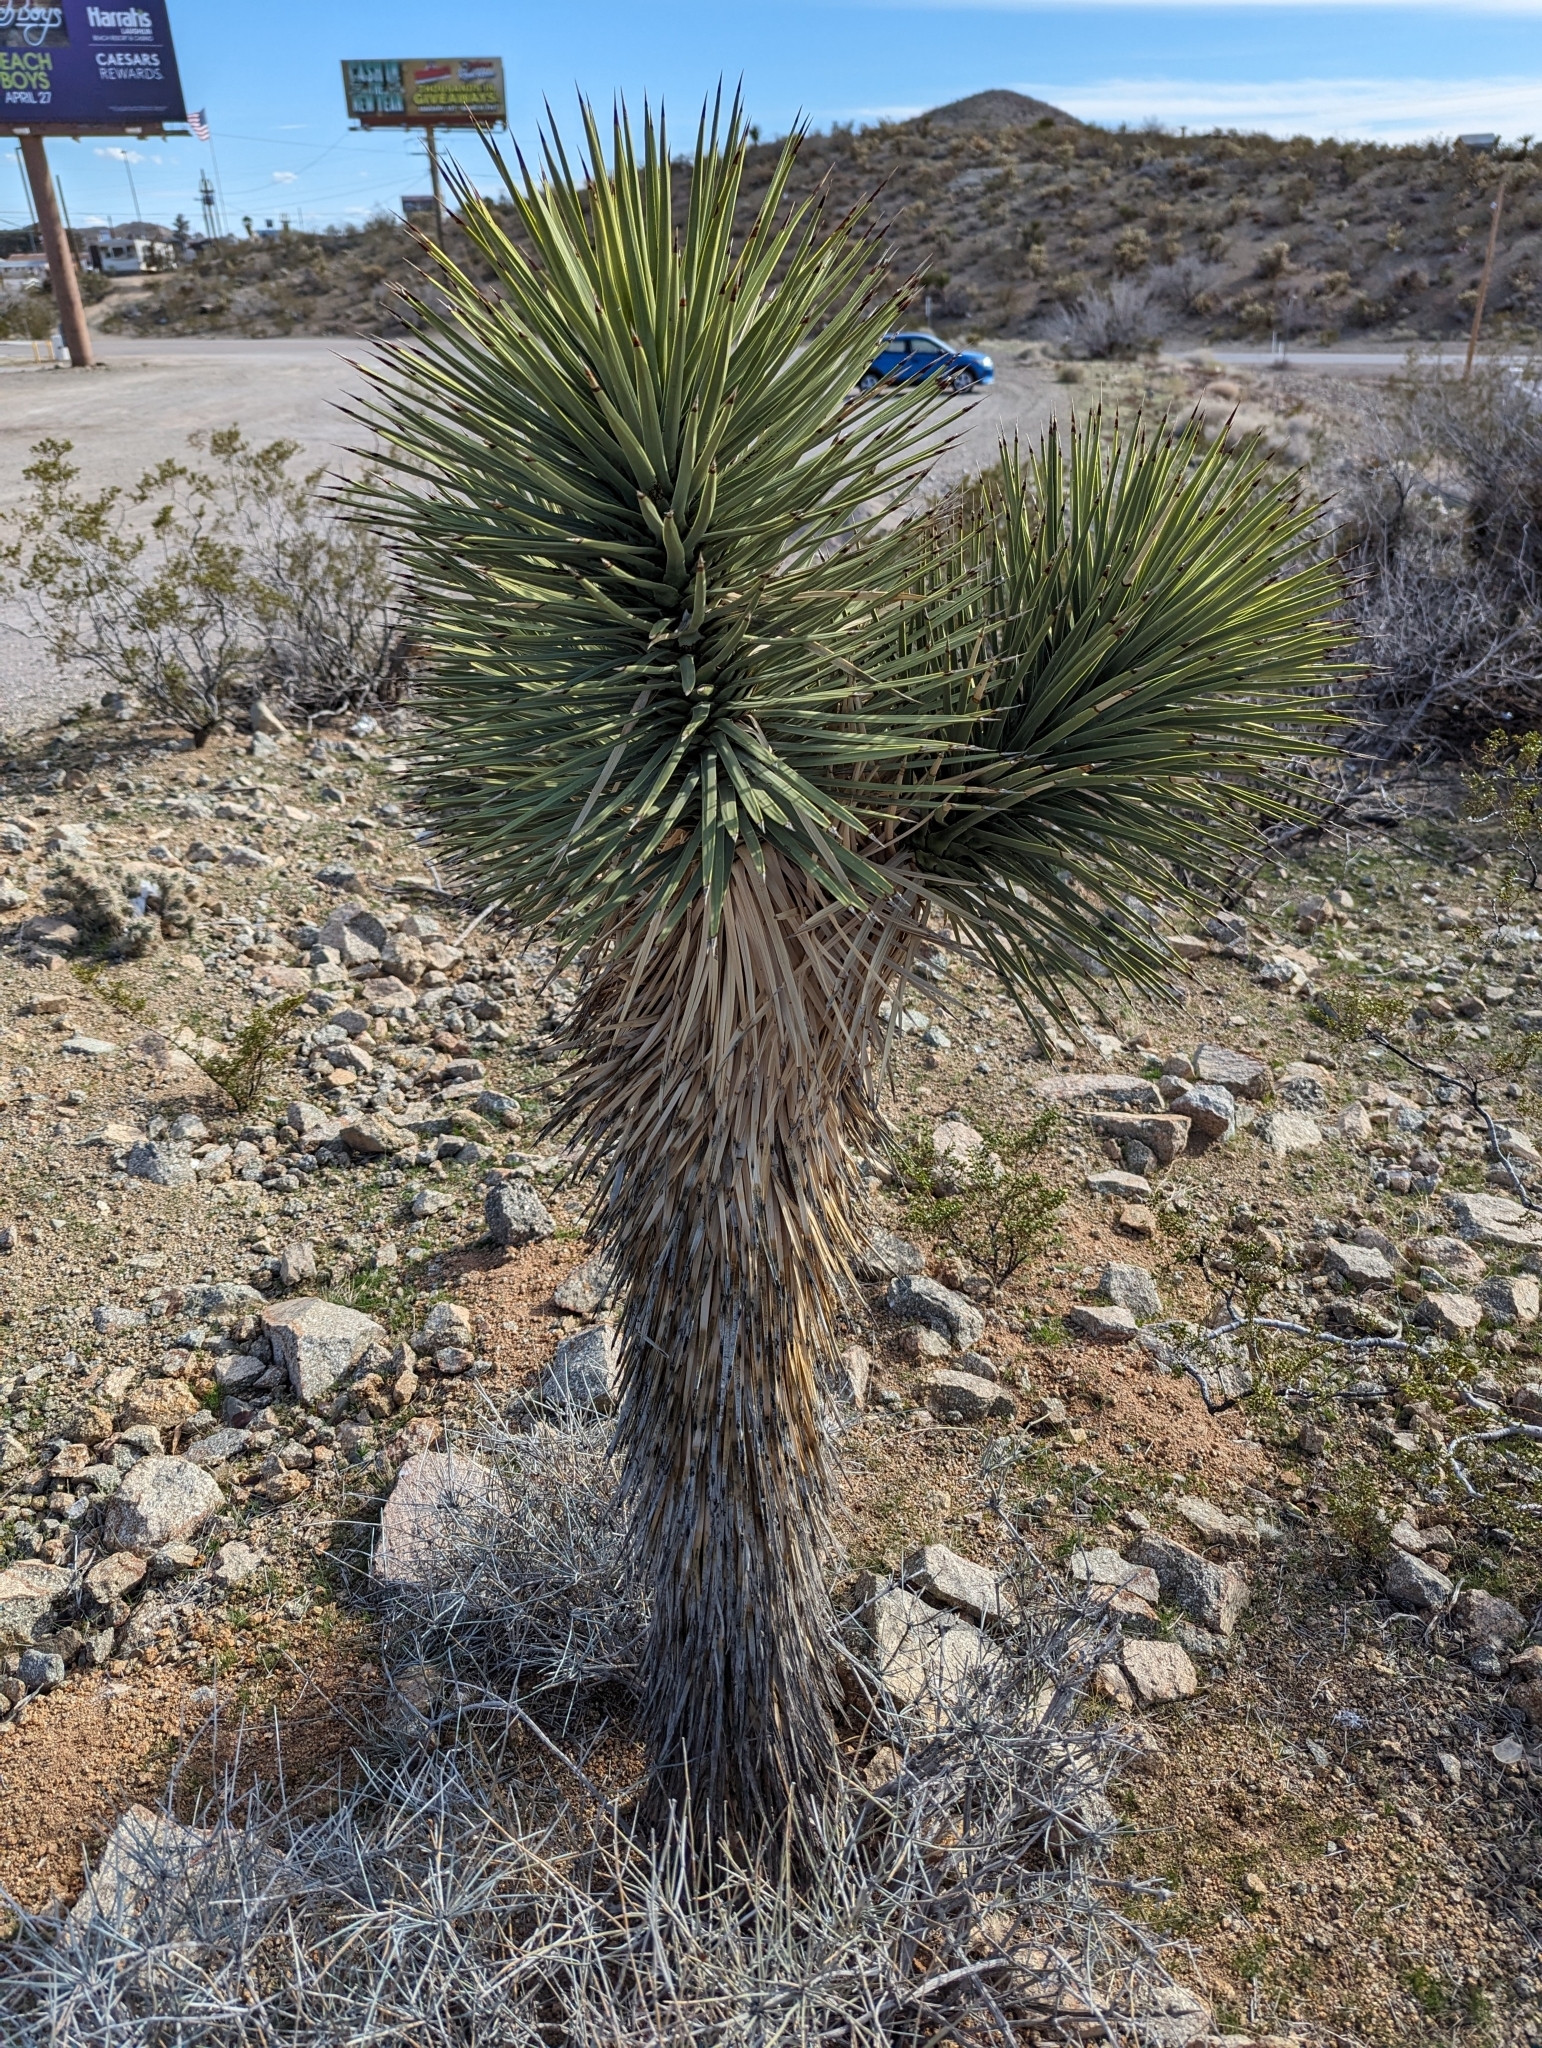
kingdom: Plantae
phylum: Tracheophyta
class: Liliopsida
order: Asparagales
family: Asparagaceae
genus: Yucca
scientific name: Yucca brevifolia
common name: Joshua tree
